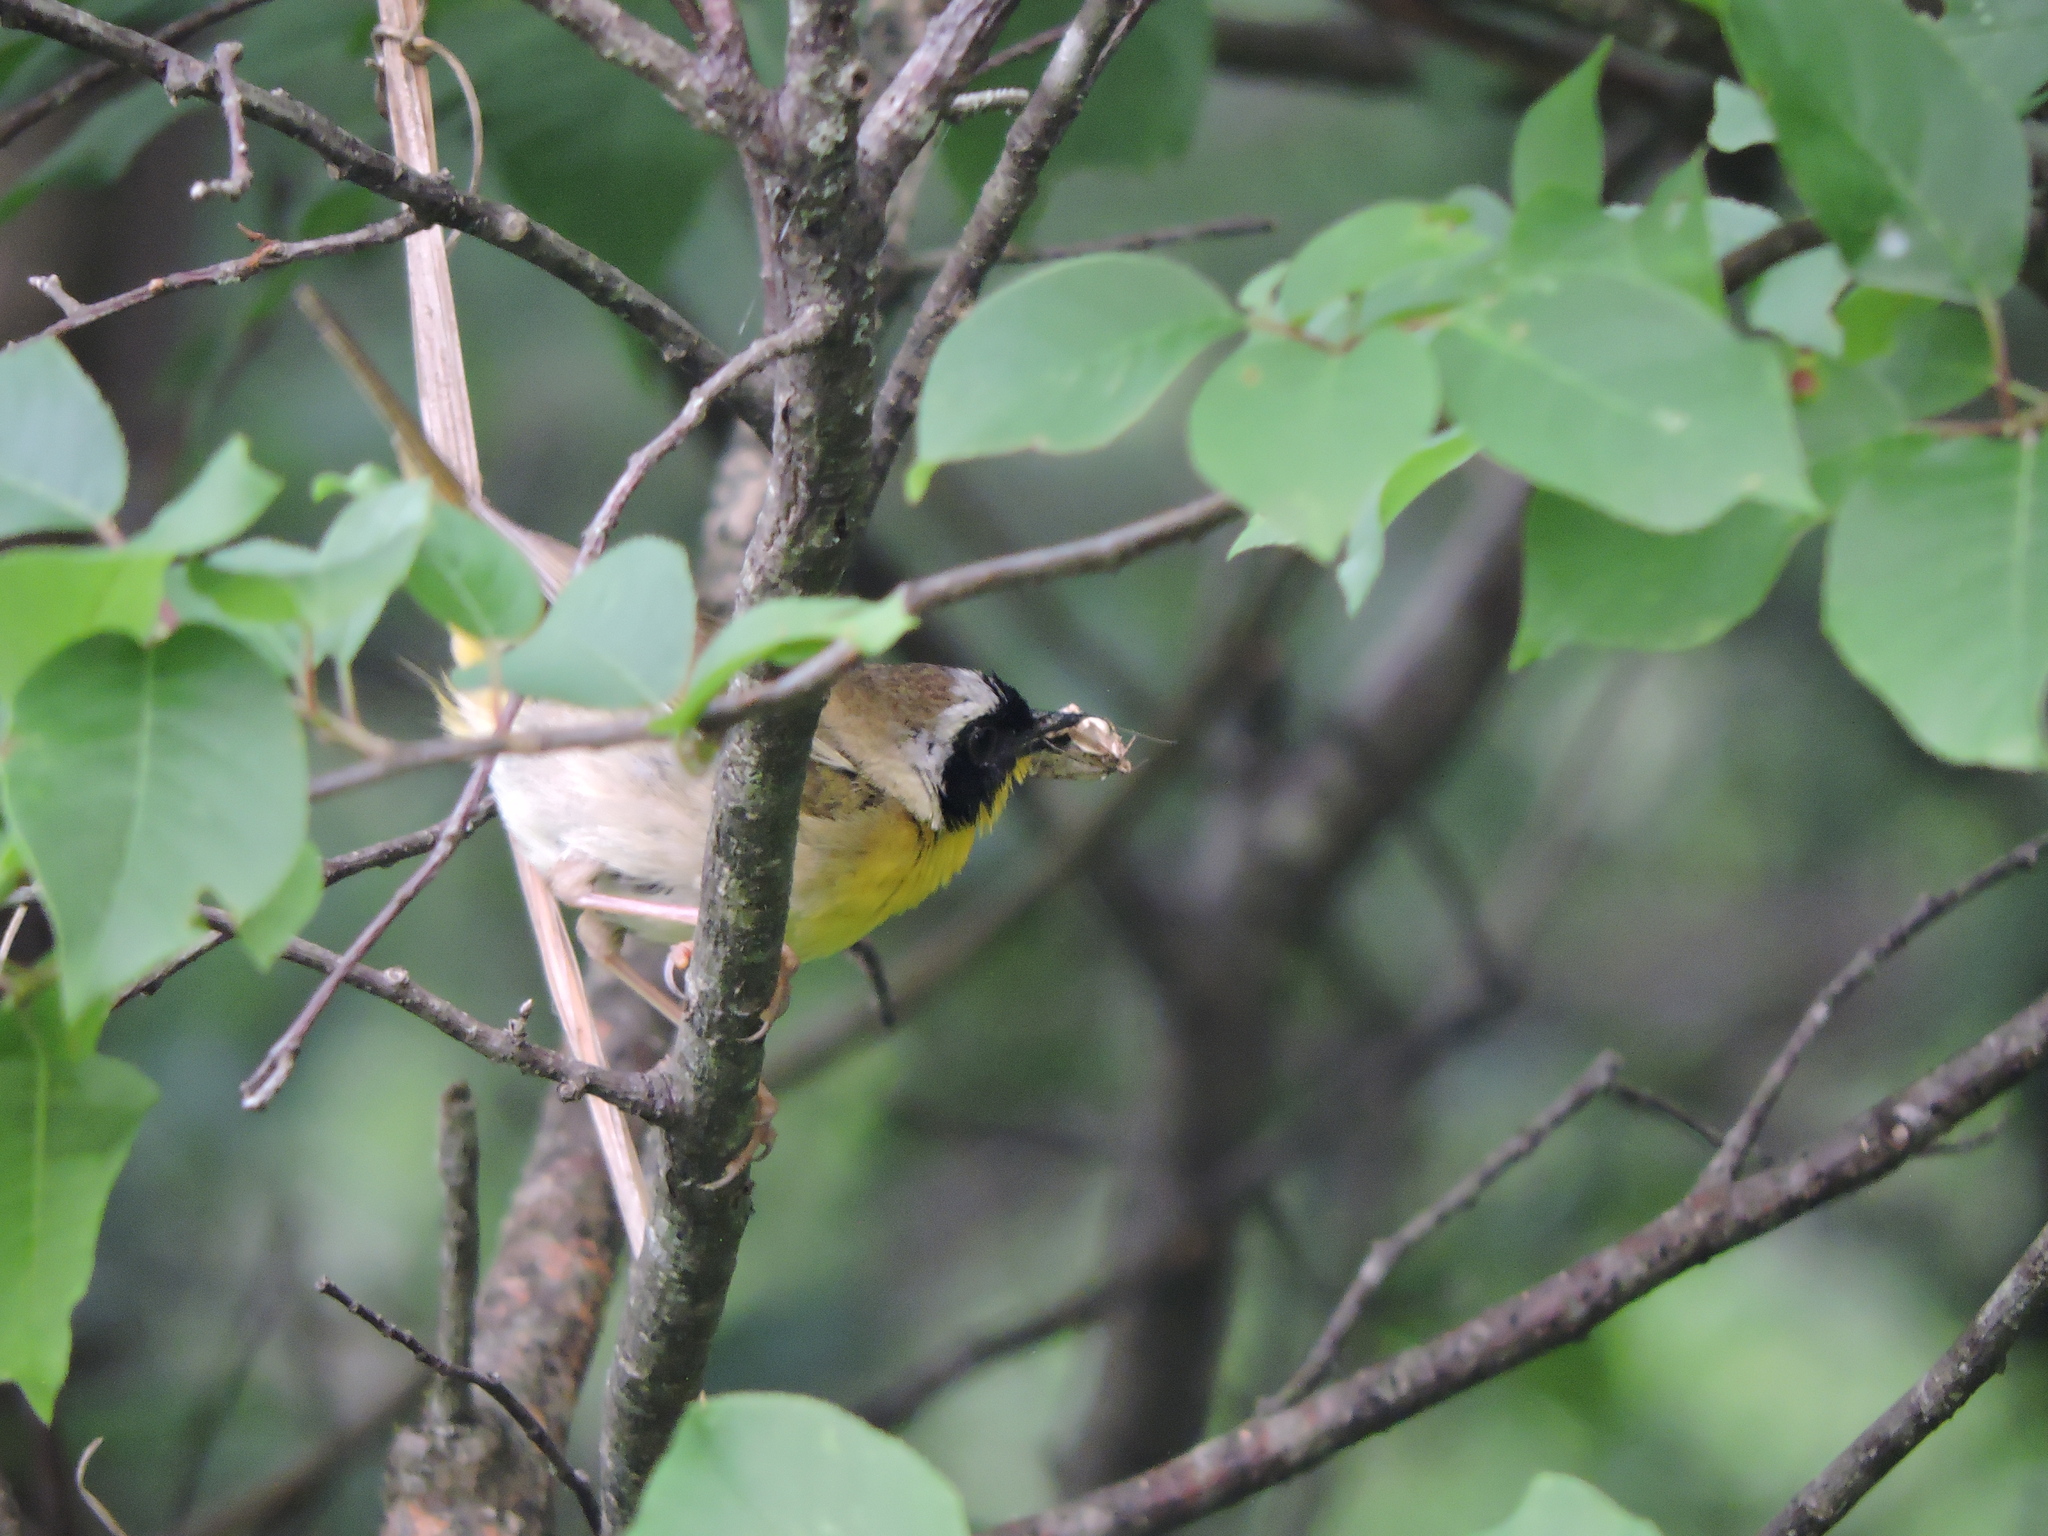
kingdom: Animalia
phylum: Chordata
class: Aves
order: Passeriformes
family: Parulidae
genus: Geothlypis
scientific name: Geothlypis trichas
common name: Common yellowthroat
